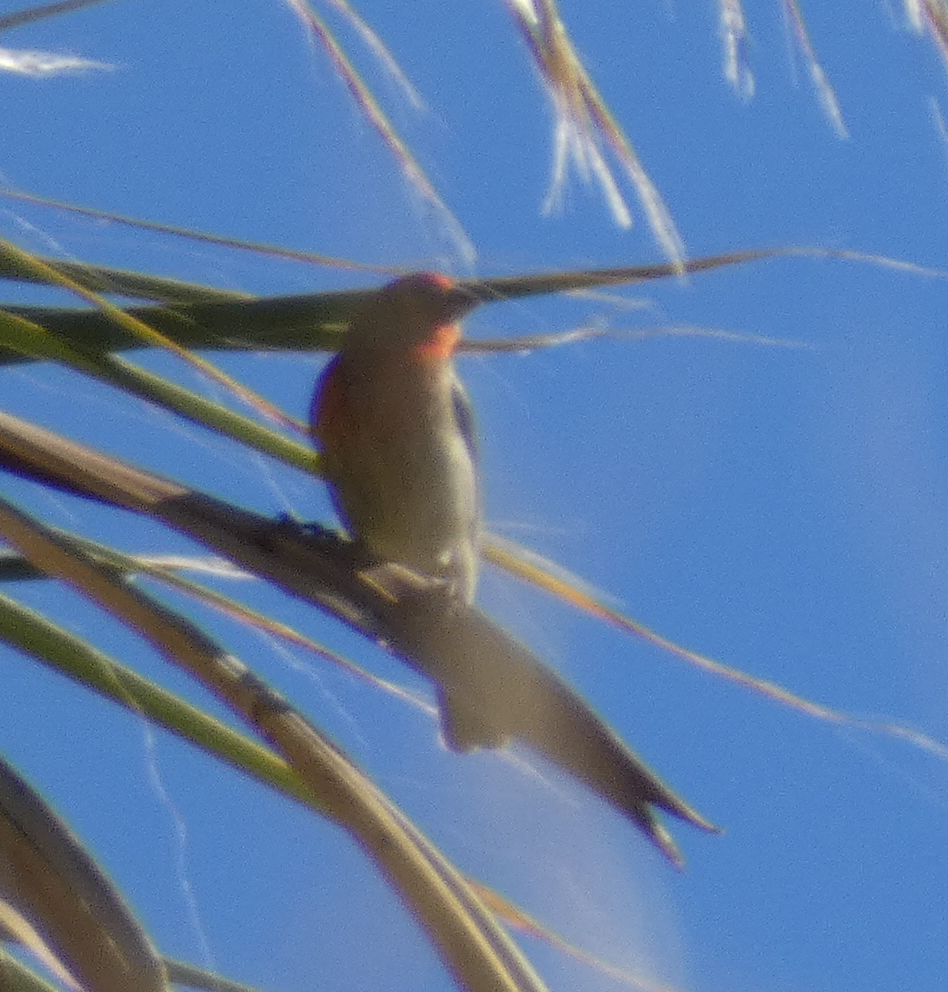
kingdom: Animalia
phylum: Chordata
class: Aves
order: Passeriformes
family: Fringillidae
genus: Haemorhous
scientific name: Haemorhous mexicanus
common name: House finch
